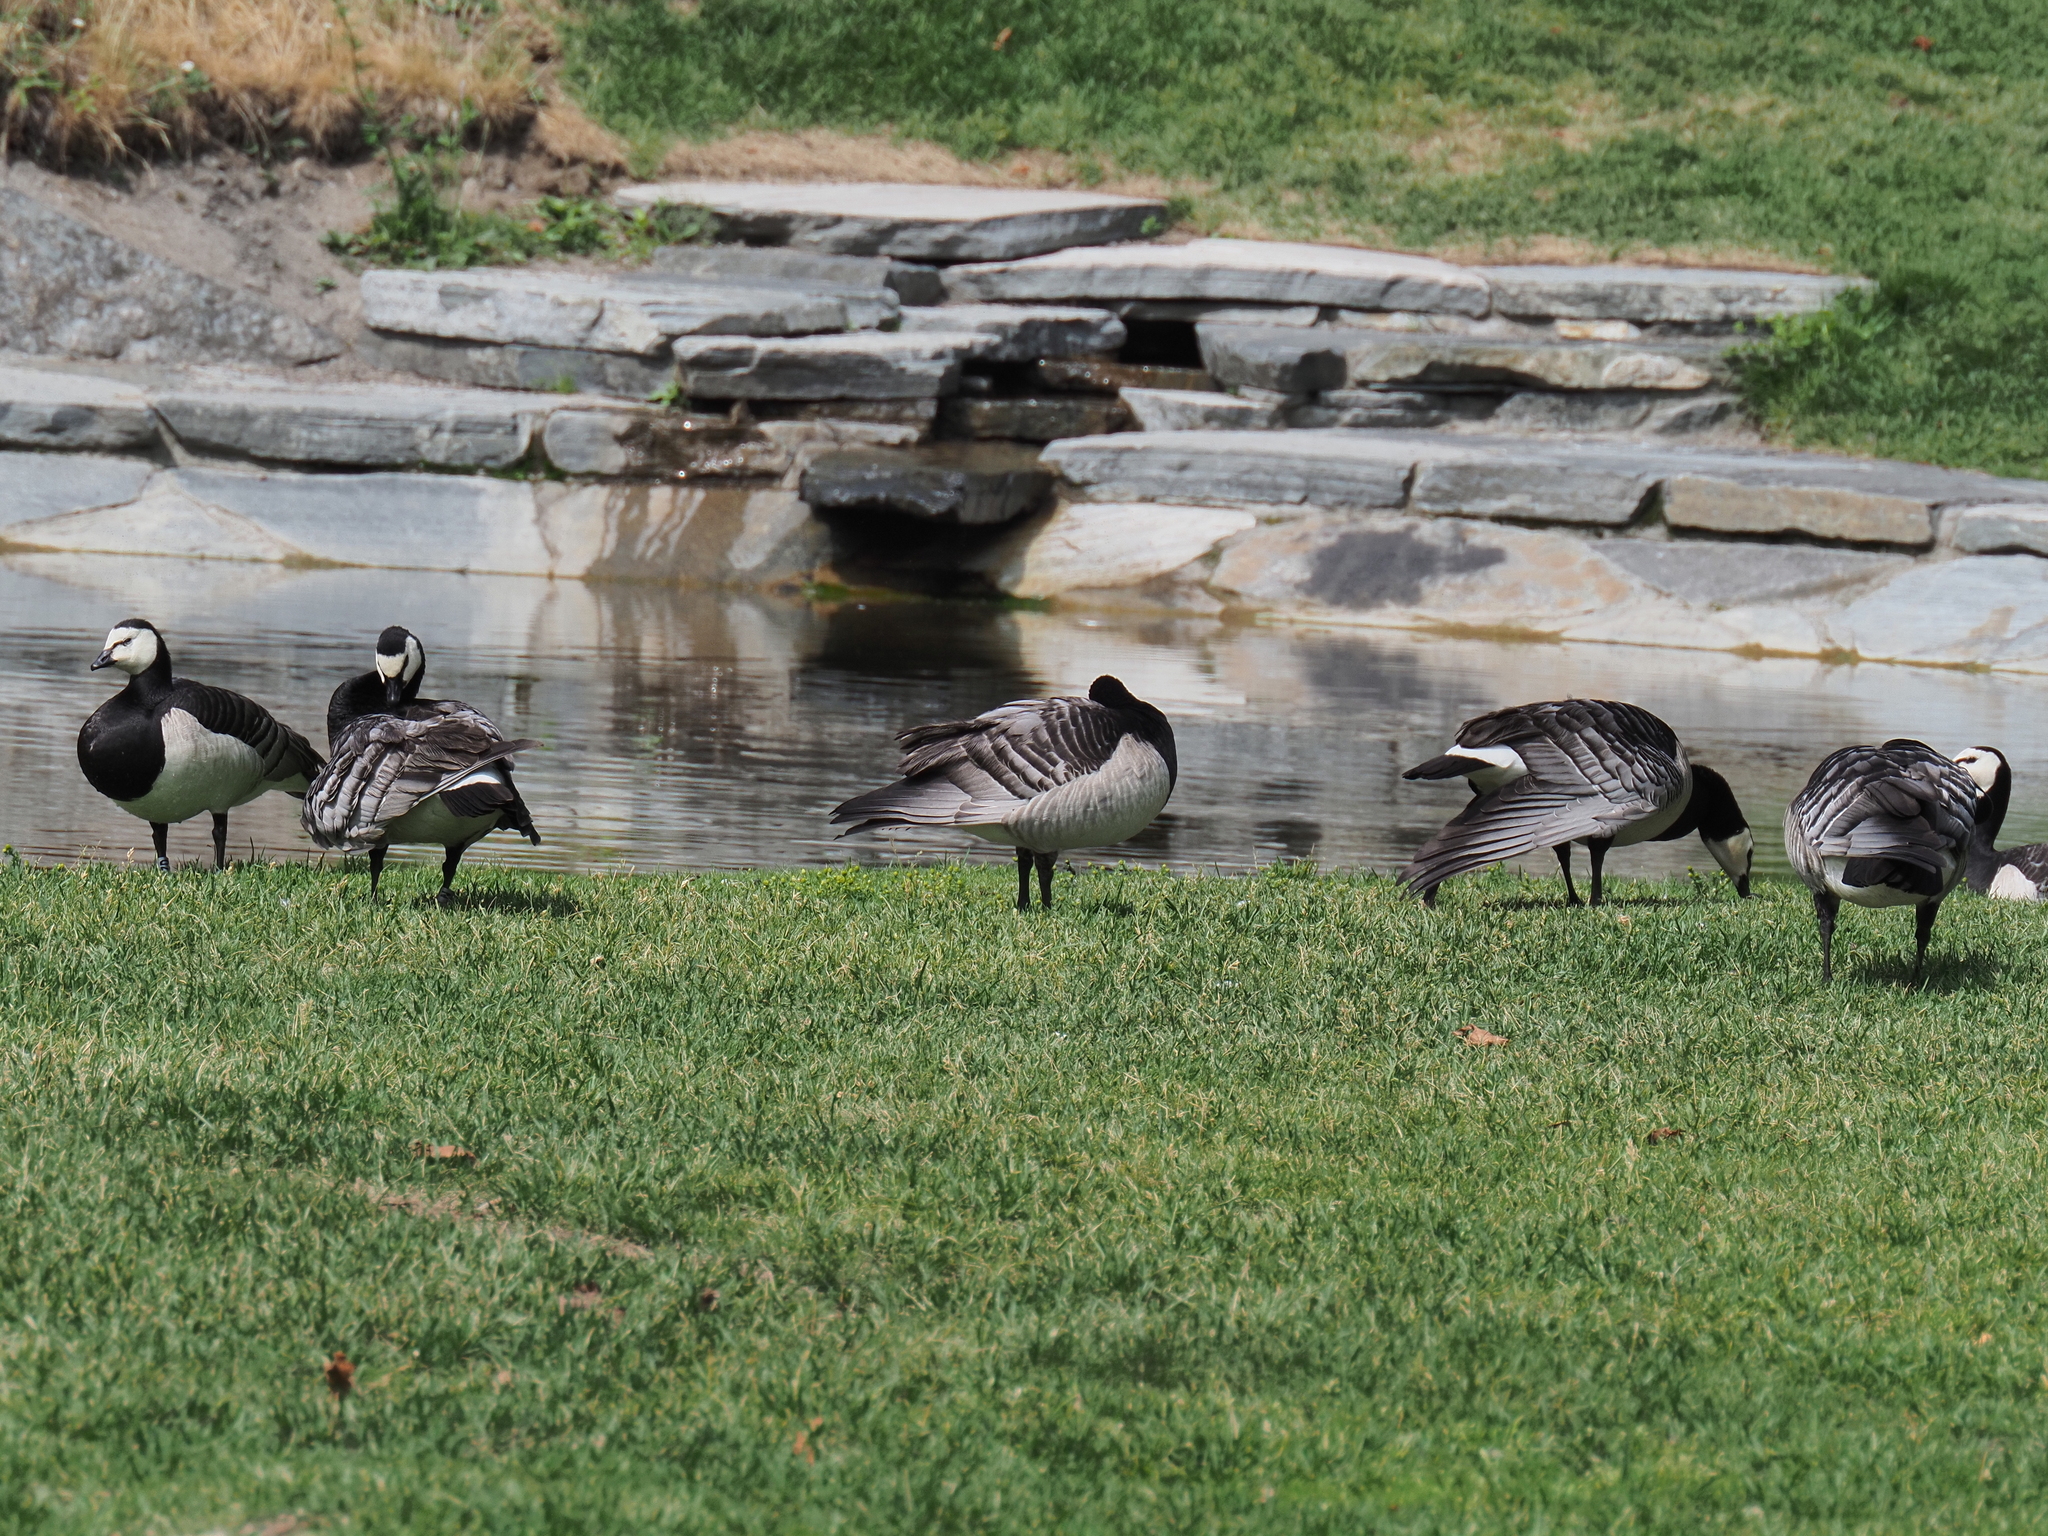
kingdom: Animalia
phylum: Chordata
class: Aves
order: Anseriformes
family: Anatidae
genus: Branta
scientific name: Branta leucopsis
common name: Barnacle goose
